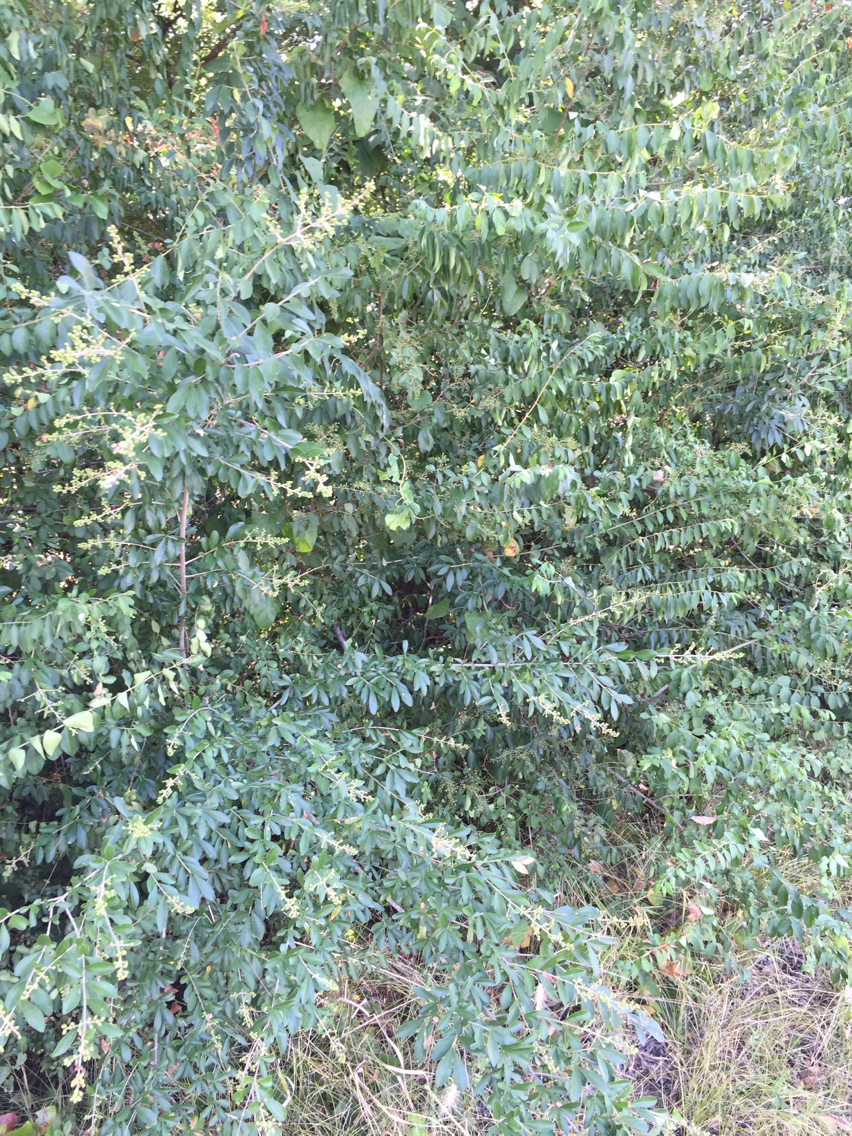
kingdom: Plantae
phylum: Tracheophyta
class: Magnoliopsida
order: Lamiales
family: Oleaceae
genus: Ligustrum
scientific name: Ligustrum quihoui
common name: Waxyleaf privet
